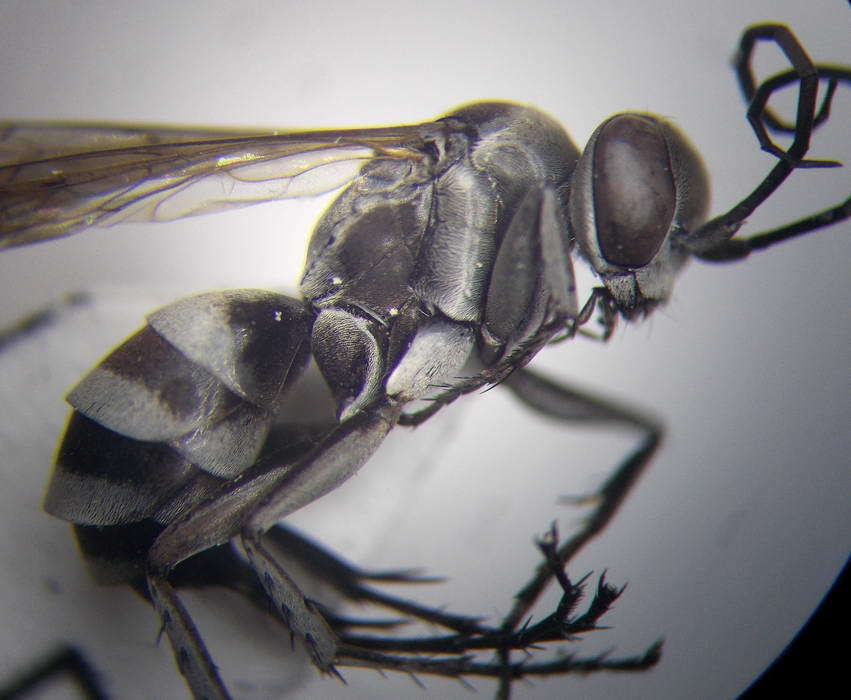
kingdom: Animalia
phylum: Arthropoda
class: Insecta
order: Hymenoptera
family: Pompilidae
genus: Aporinellus
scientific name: Aporinellus sexmaculatus
